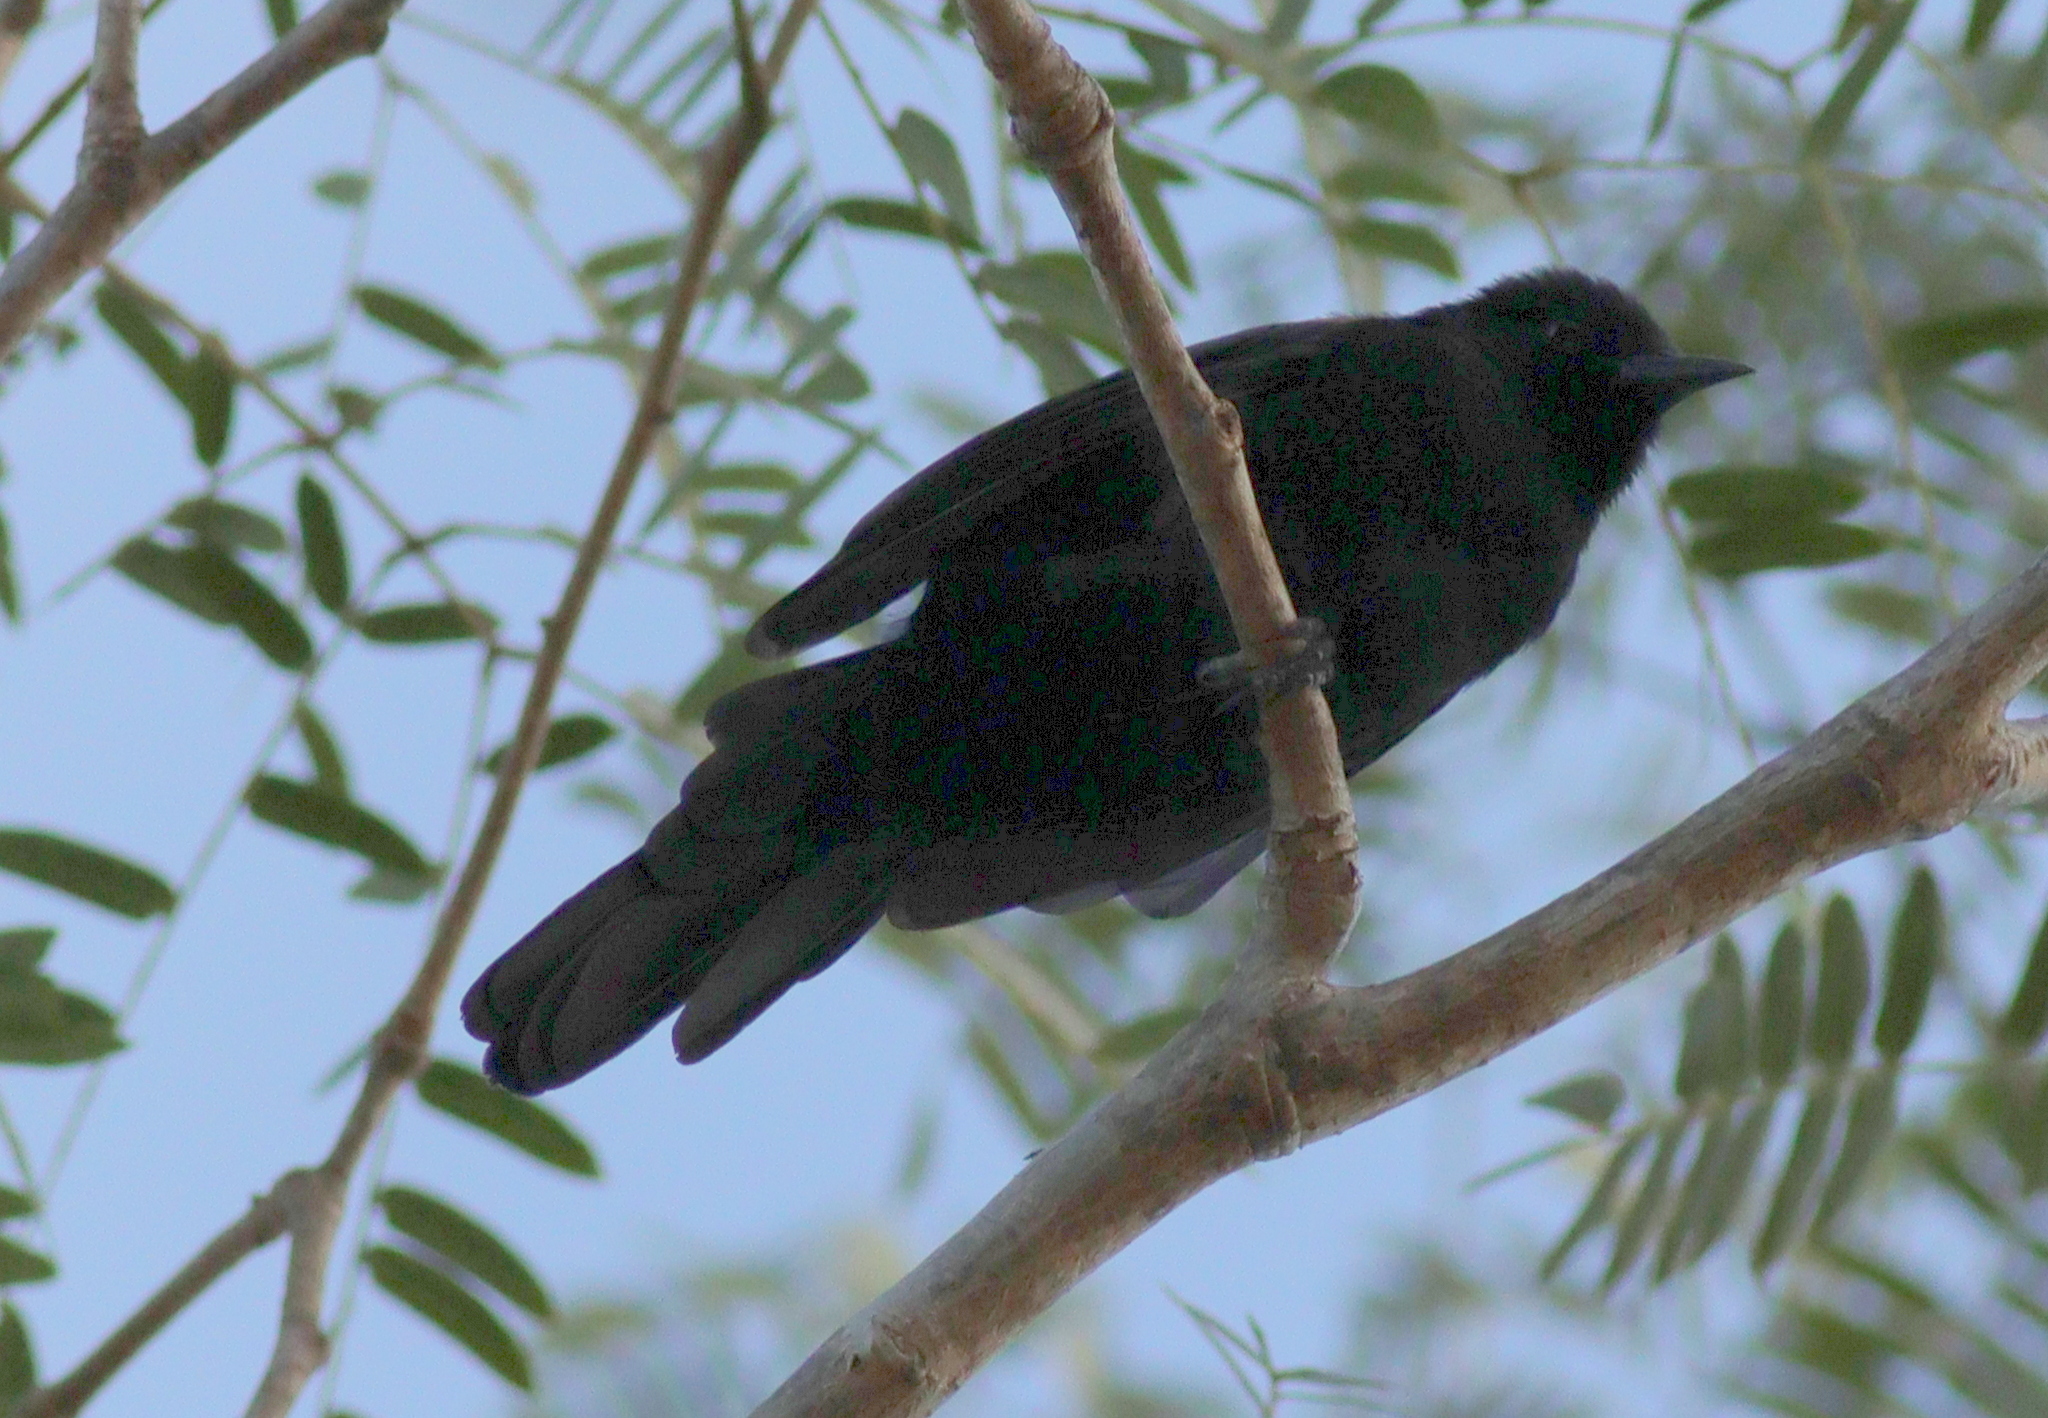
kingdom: Animalia
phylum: Chordata
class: Aves
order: Passeriformes
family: Icteridae
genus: Icterus
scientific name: Icterus cayanensis
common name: Epaulet oriole
